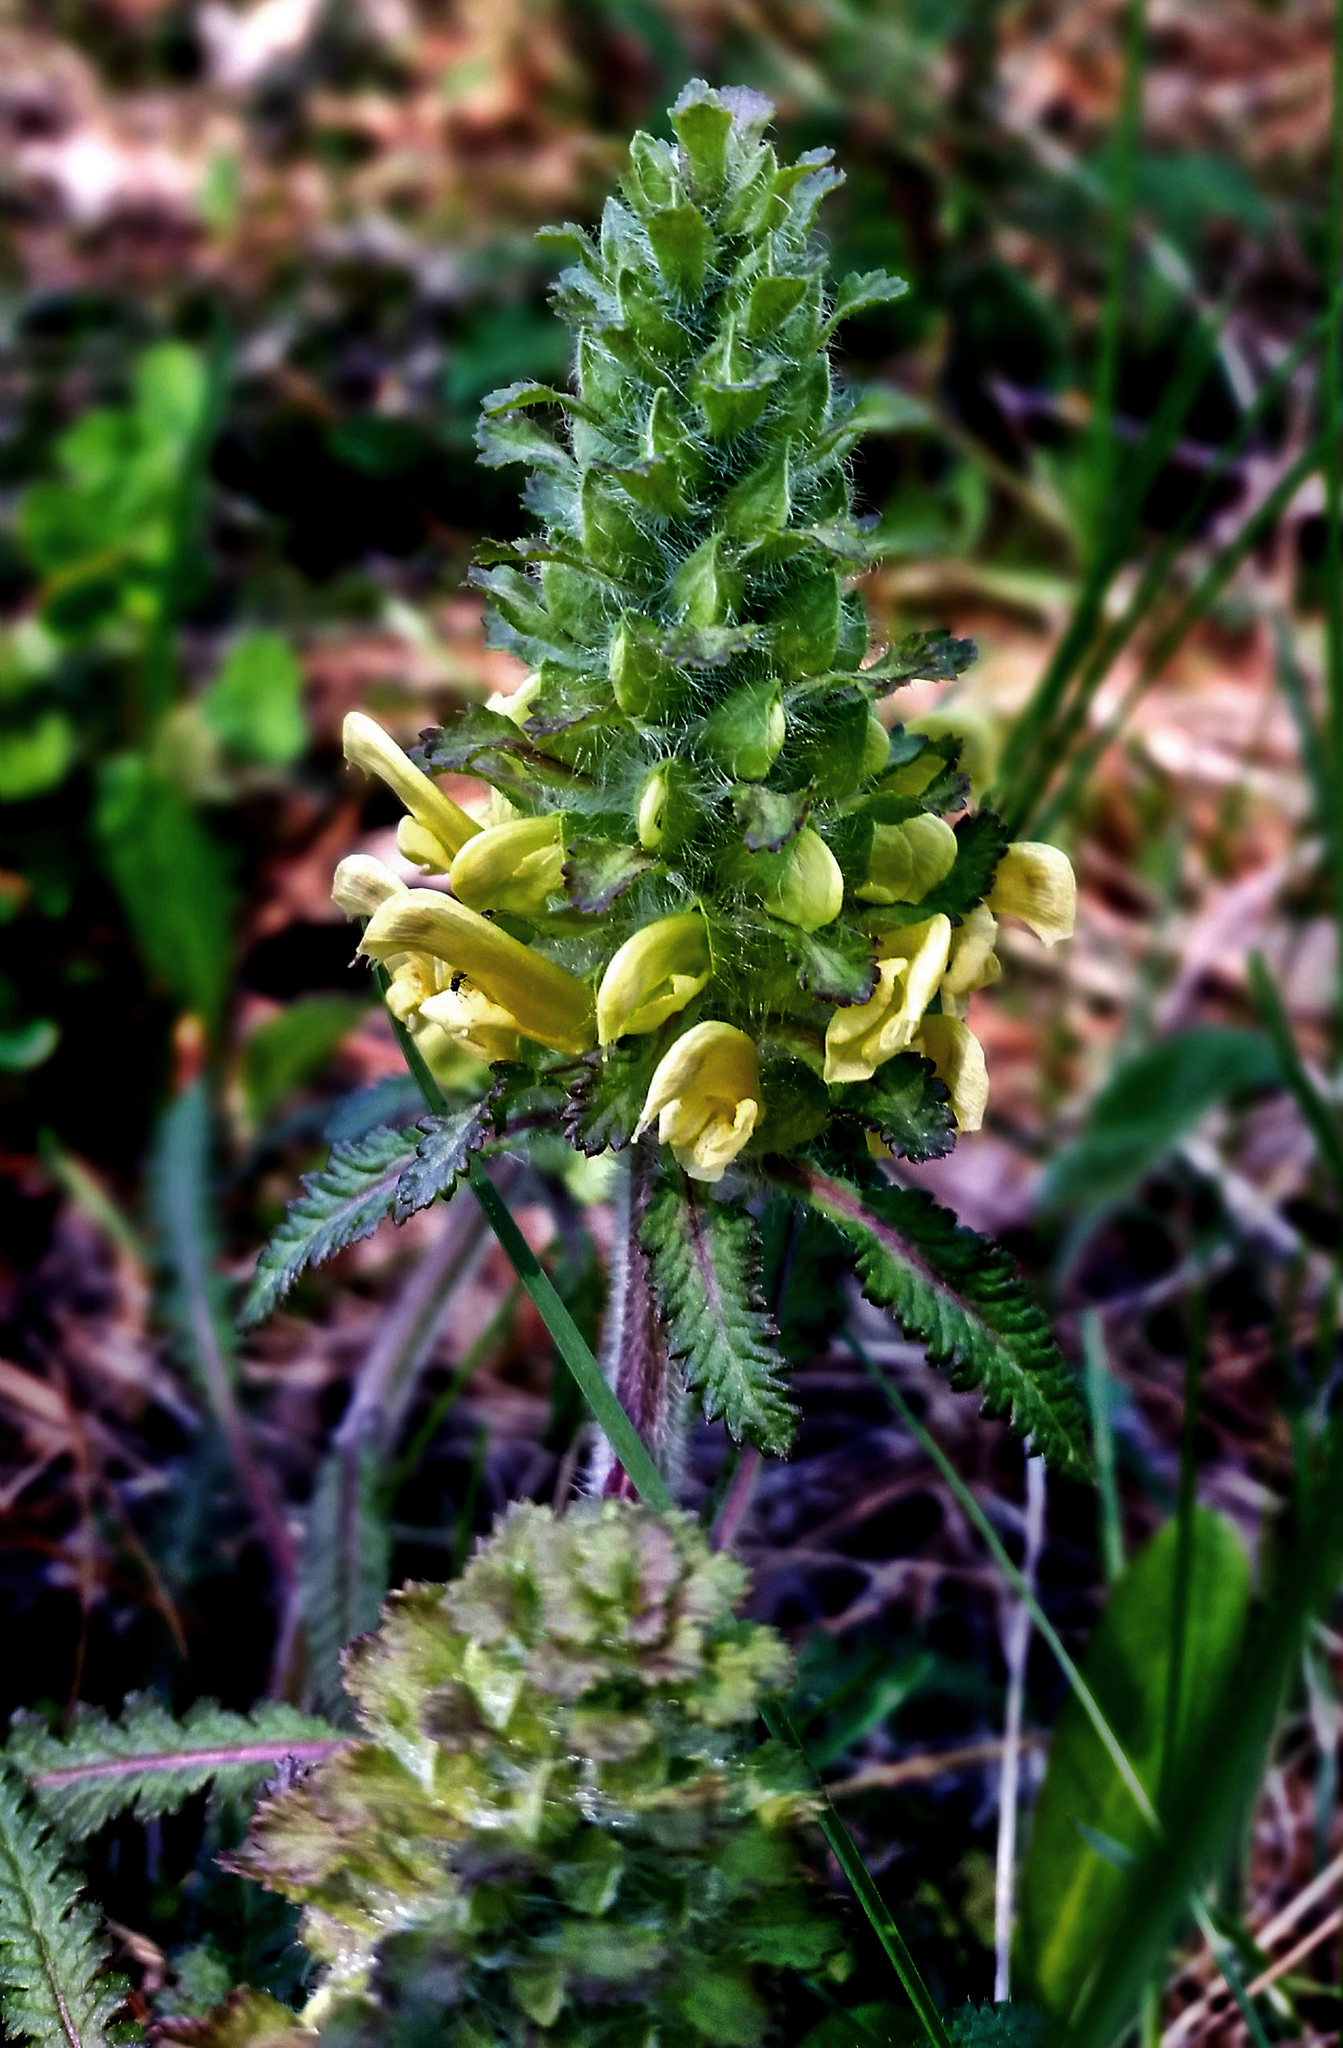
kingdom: Plantae
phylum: Tracheophyta
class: Magnoliopsida
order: Lamiales
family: Orobanchaceae
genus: Pedicularis
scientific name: Pedicularis canadensis
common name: Early lousewort
